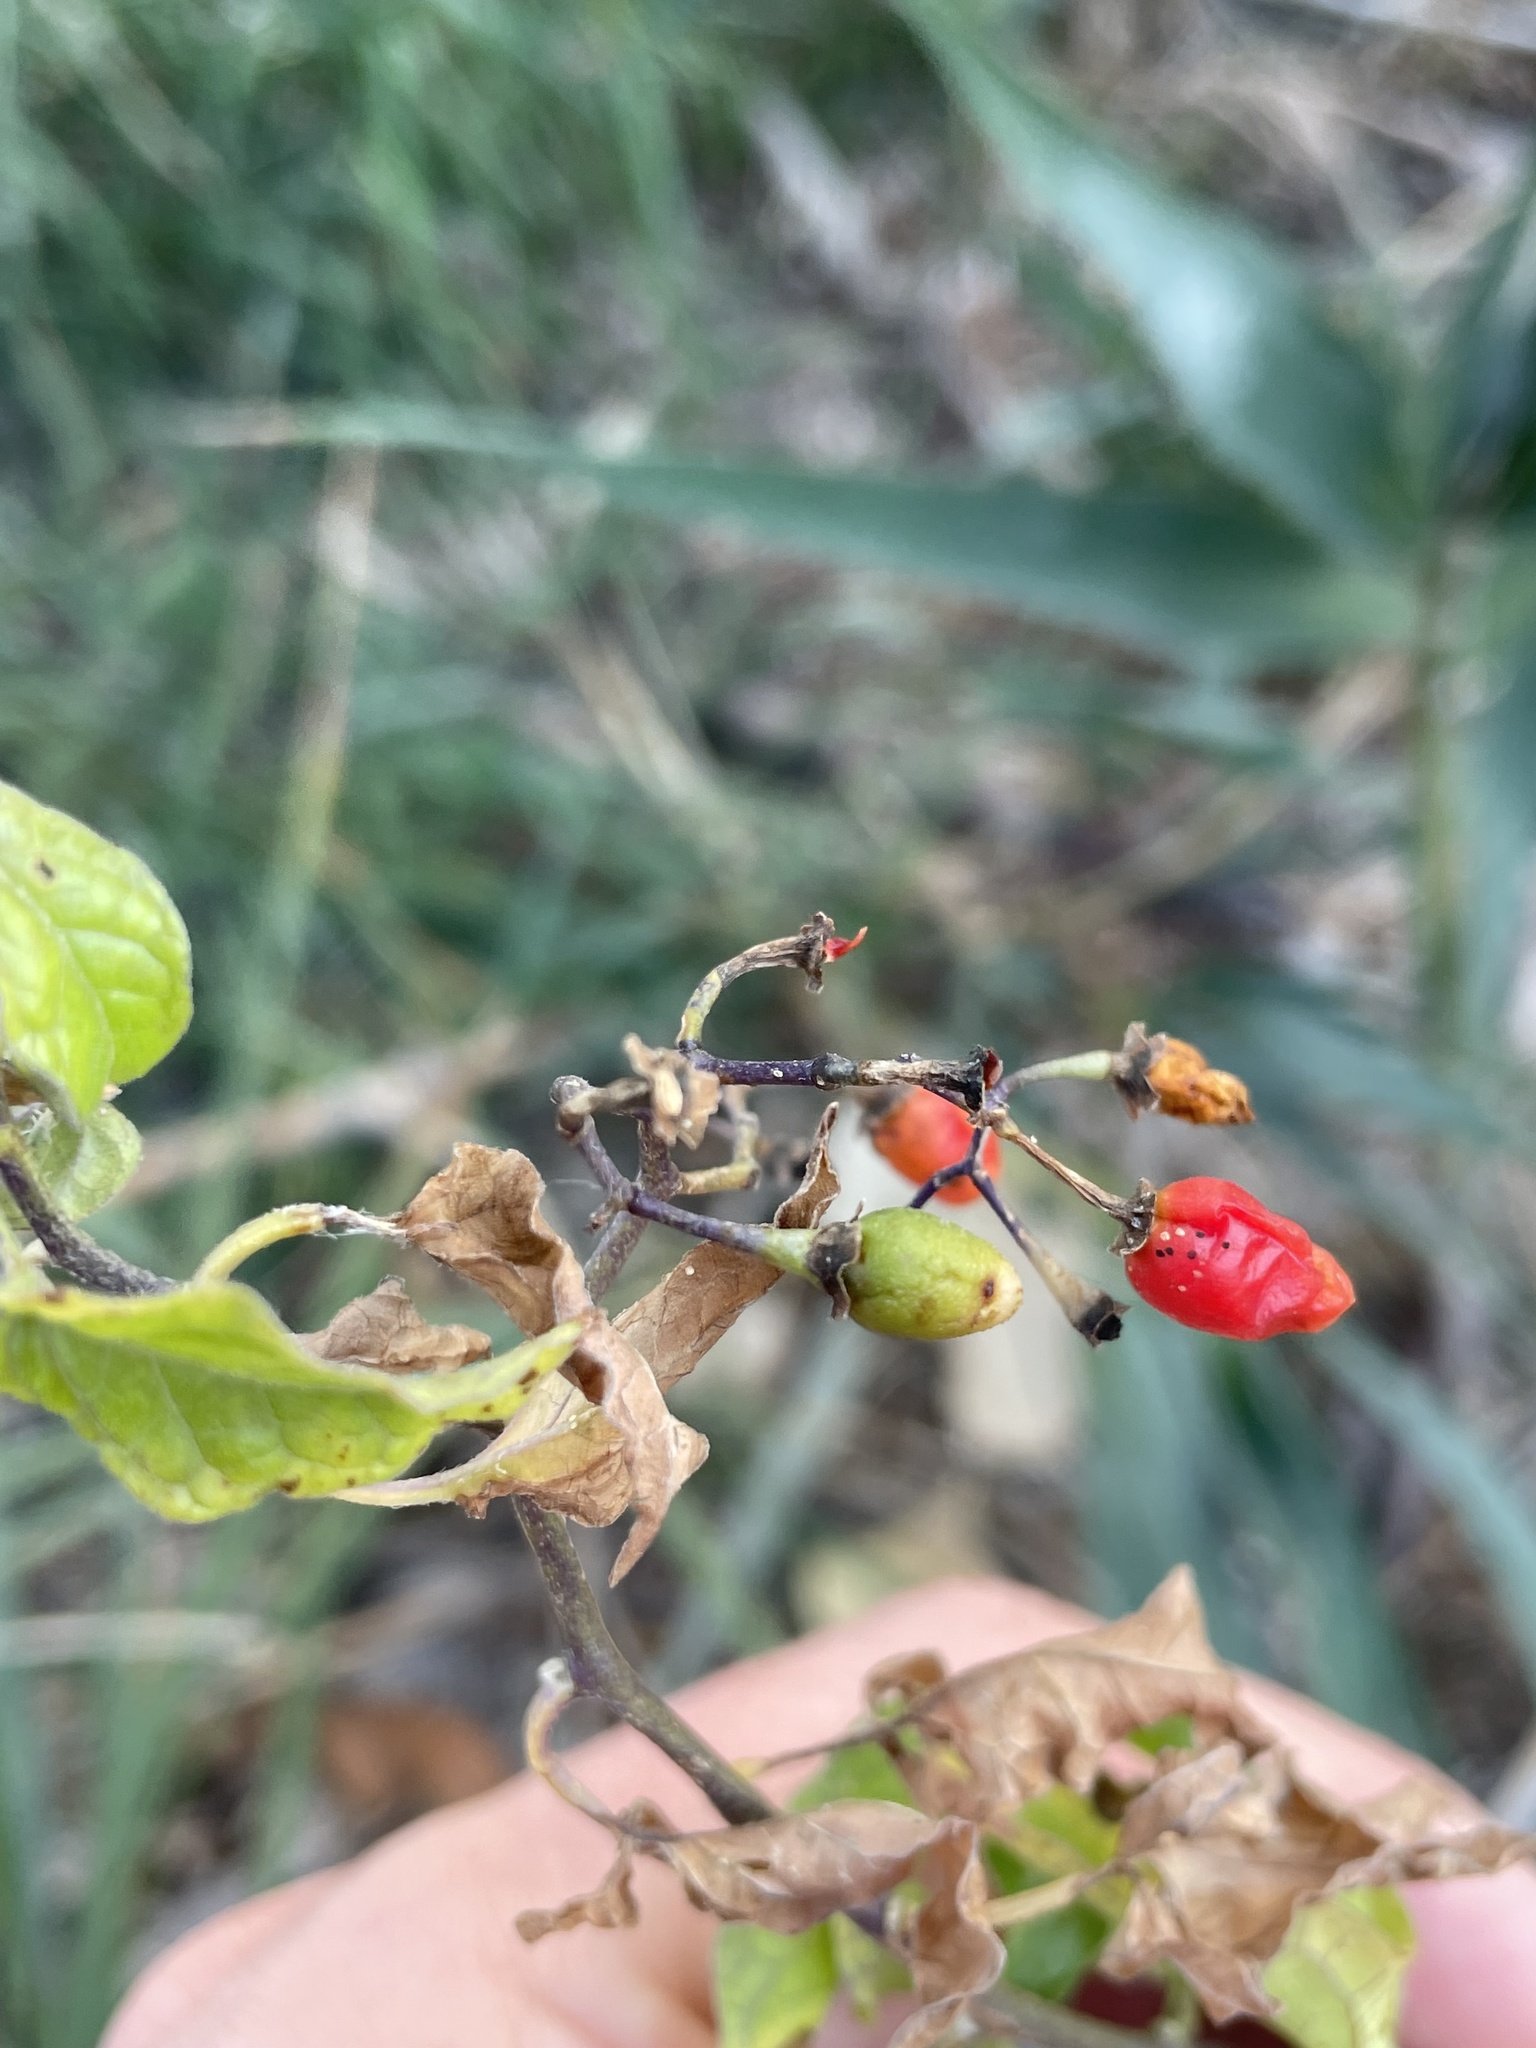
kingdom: Plantae
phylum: Tracheophyta
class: Magnoliopsida
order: Solanales
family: Solanaceae
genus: Solanum
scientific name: Solanum dulcamara
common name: Climbing nightshade
